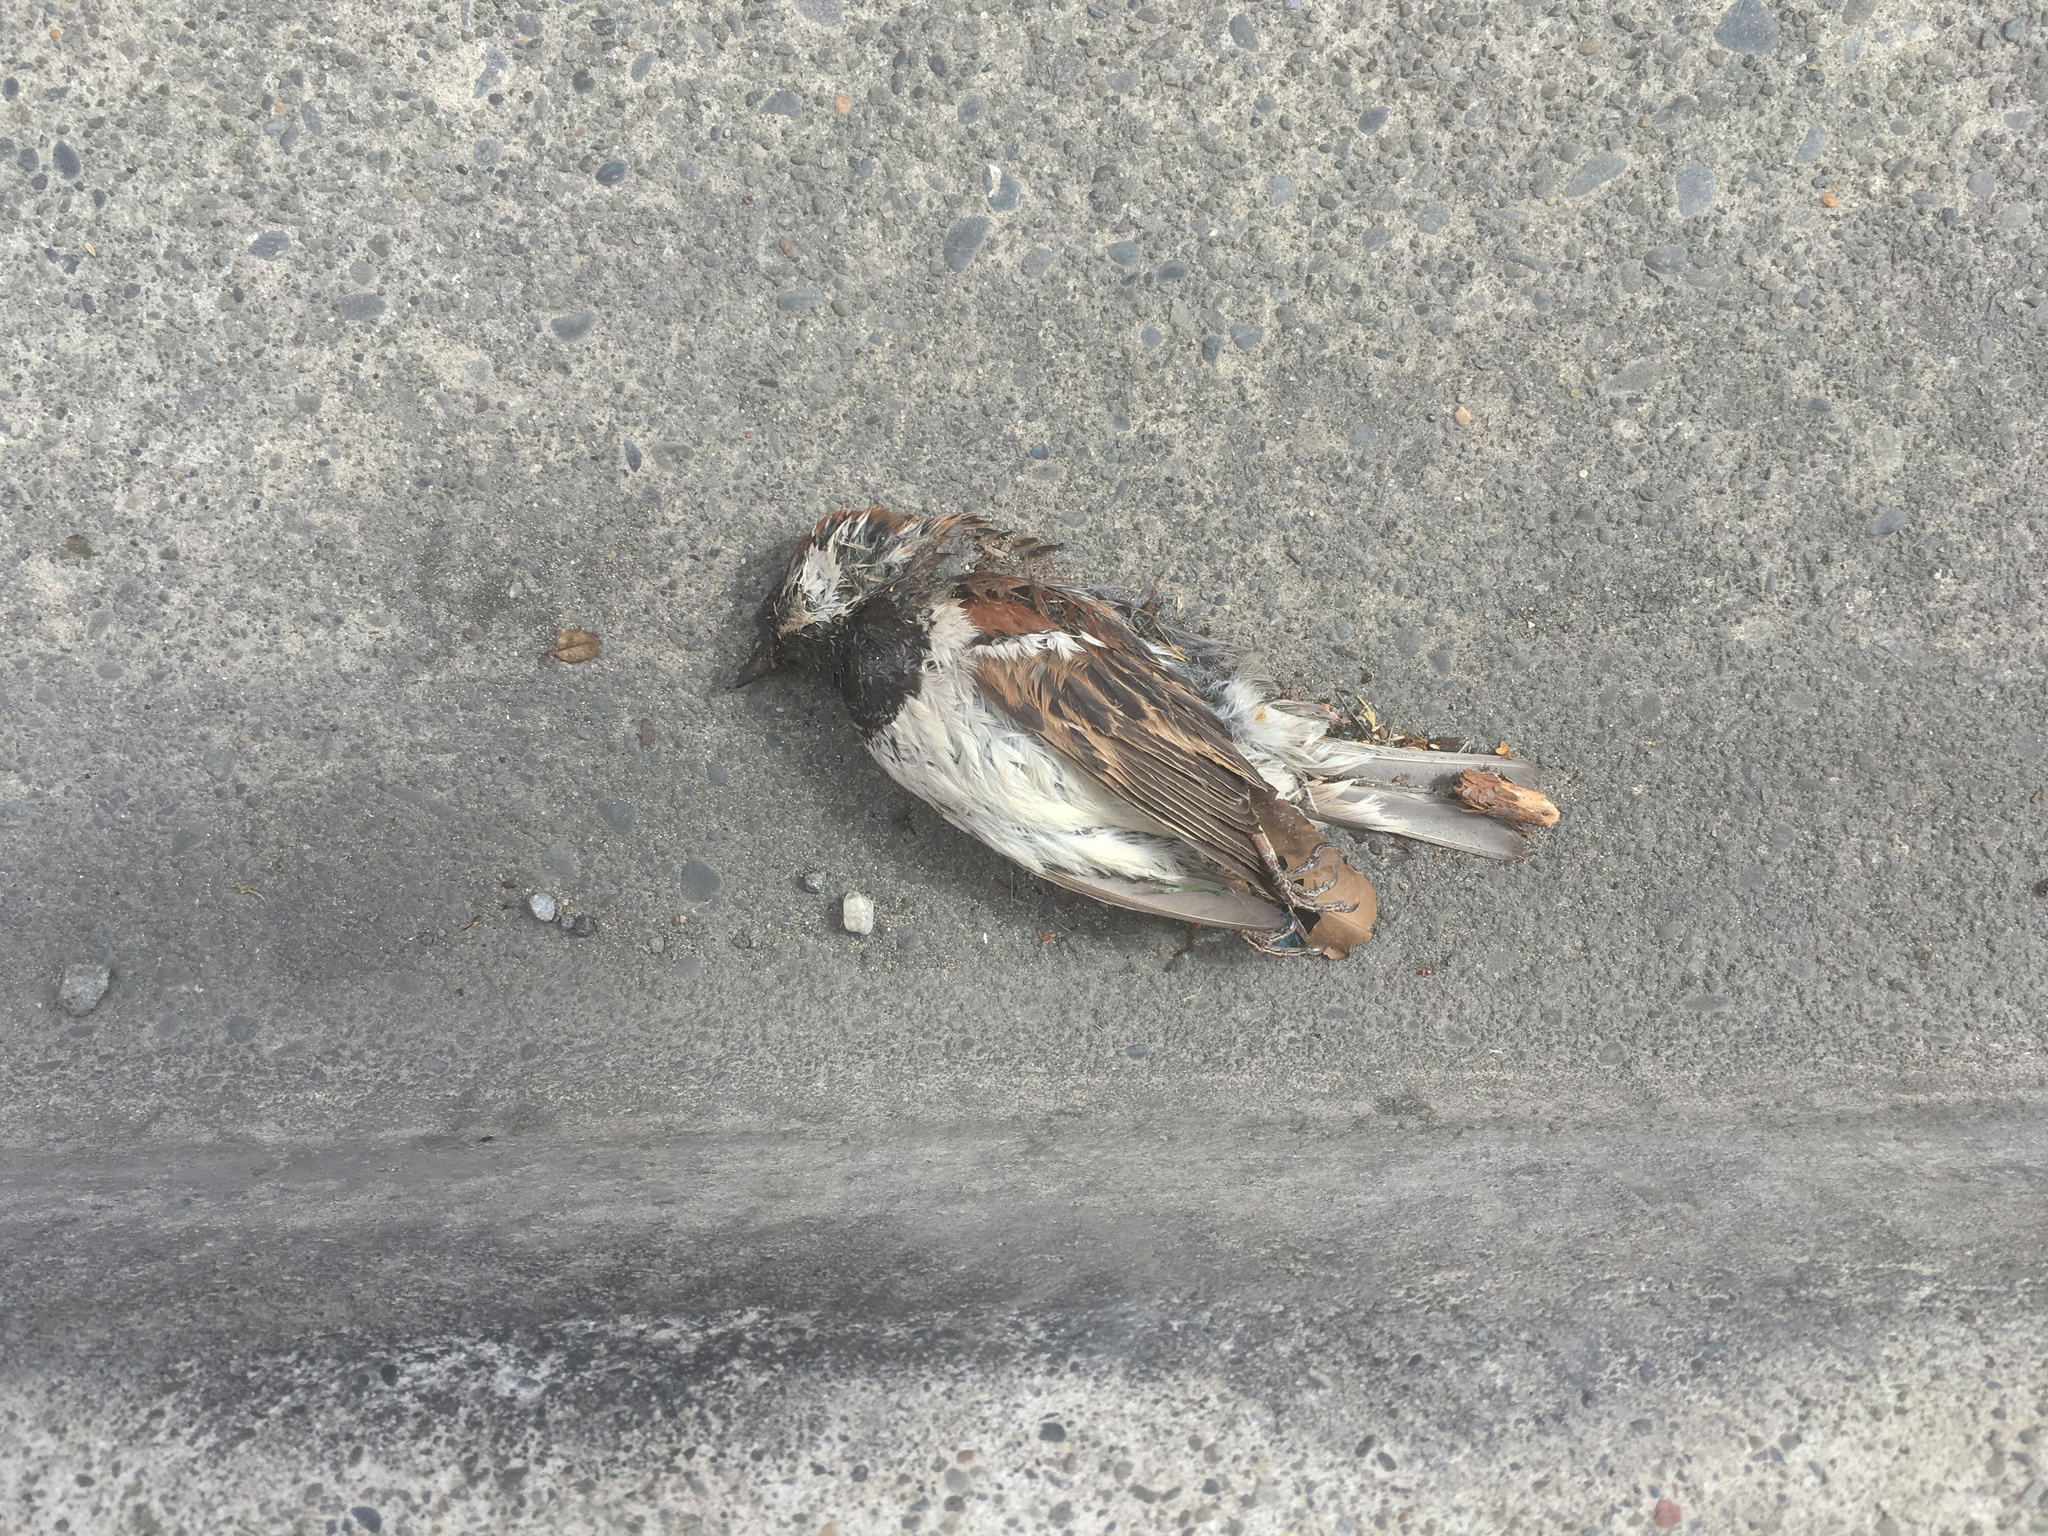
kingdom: Animalia
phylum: Chordata
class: Aves
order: Passeriformes
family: Passeridae
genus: Passer
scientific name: Passer domesticus
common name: House sparrow
